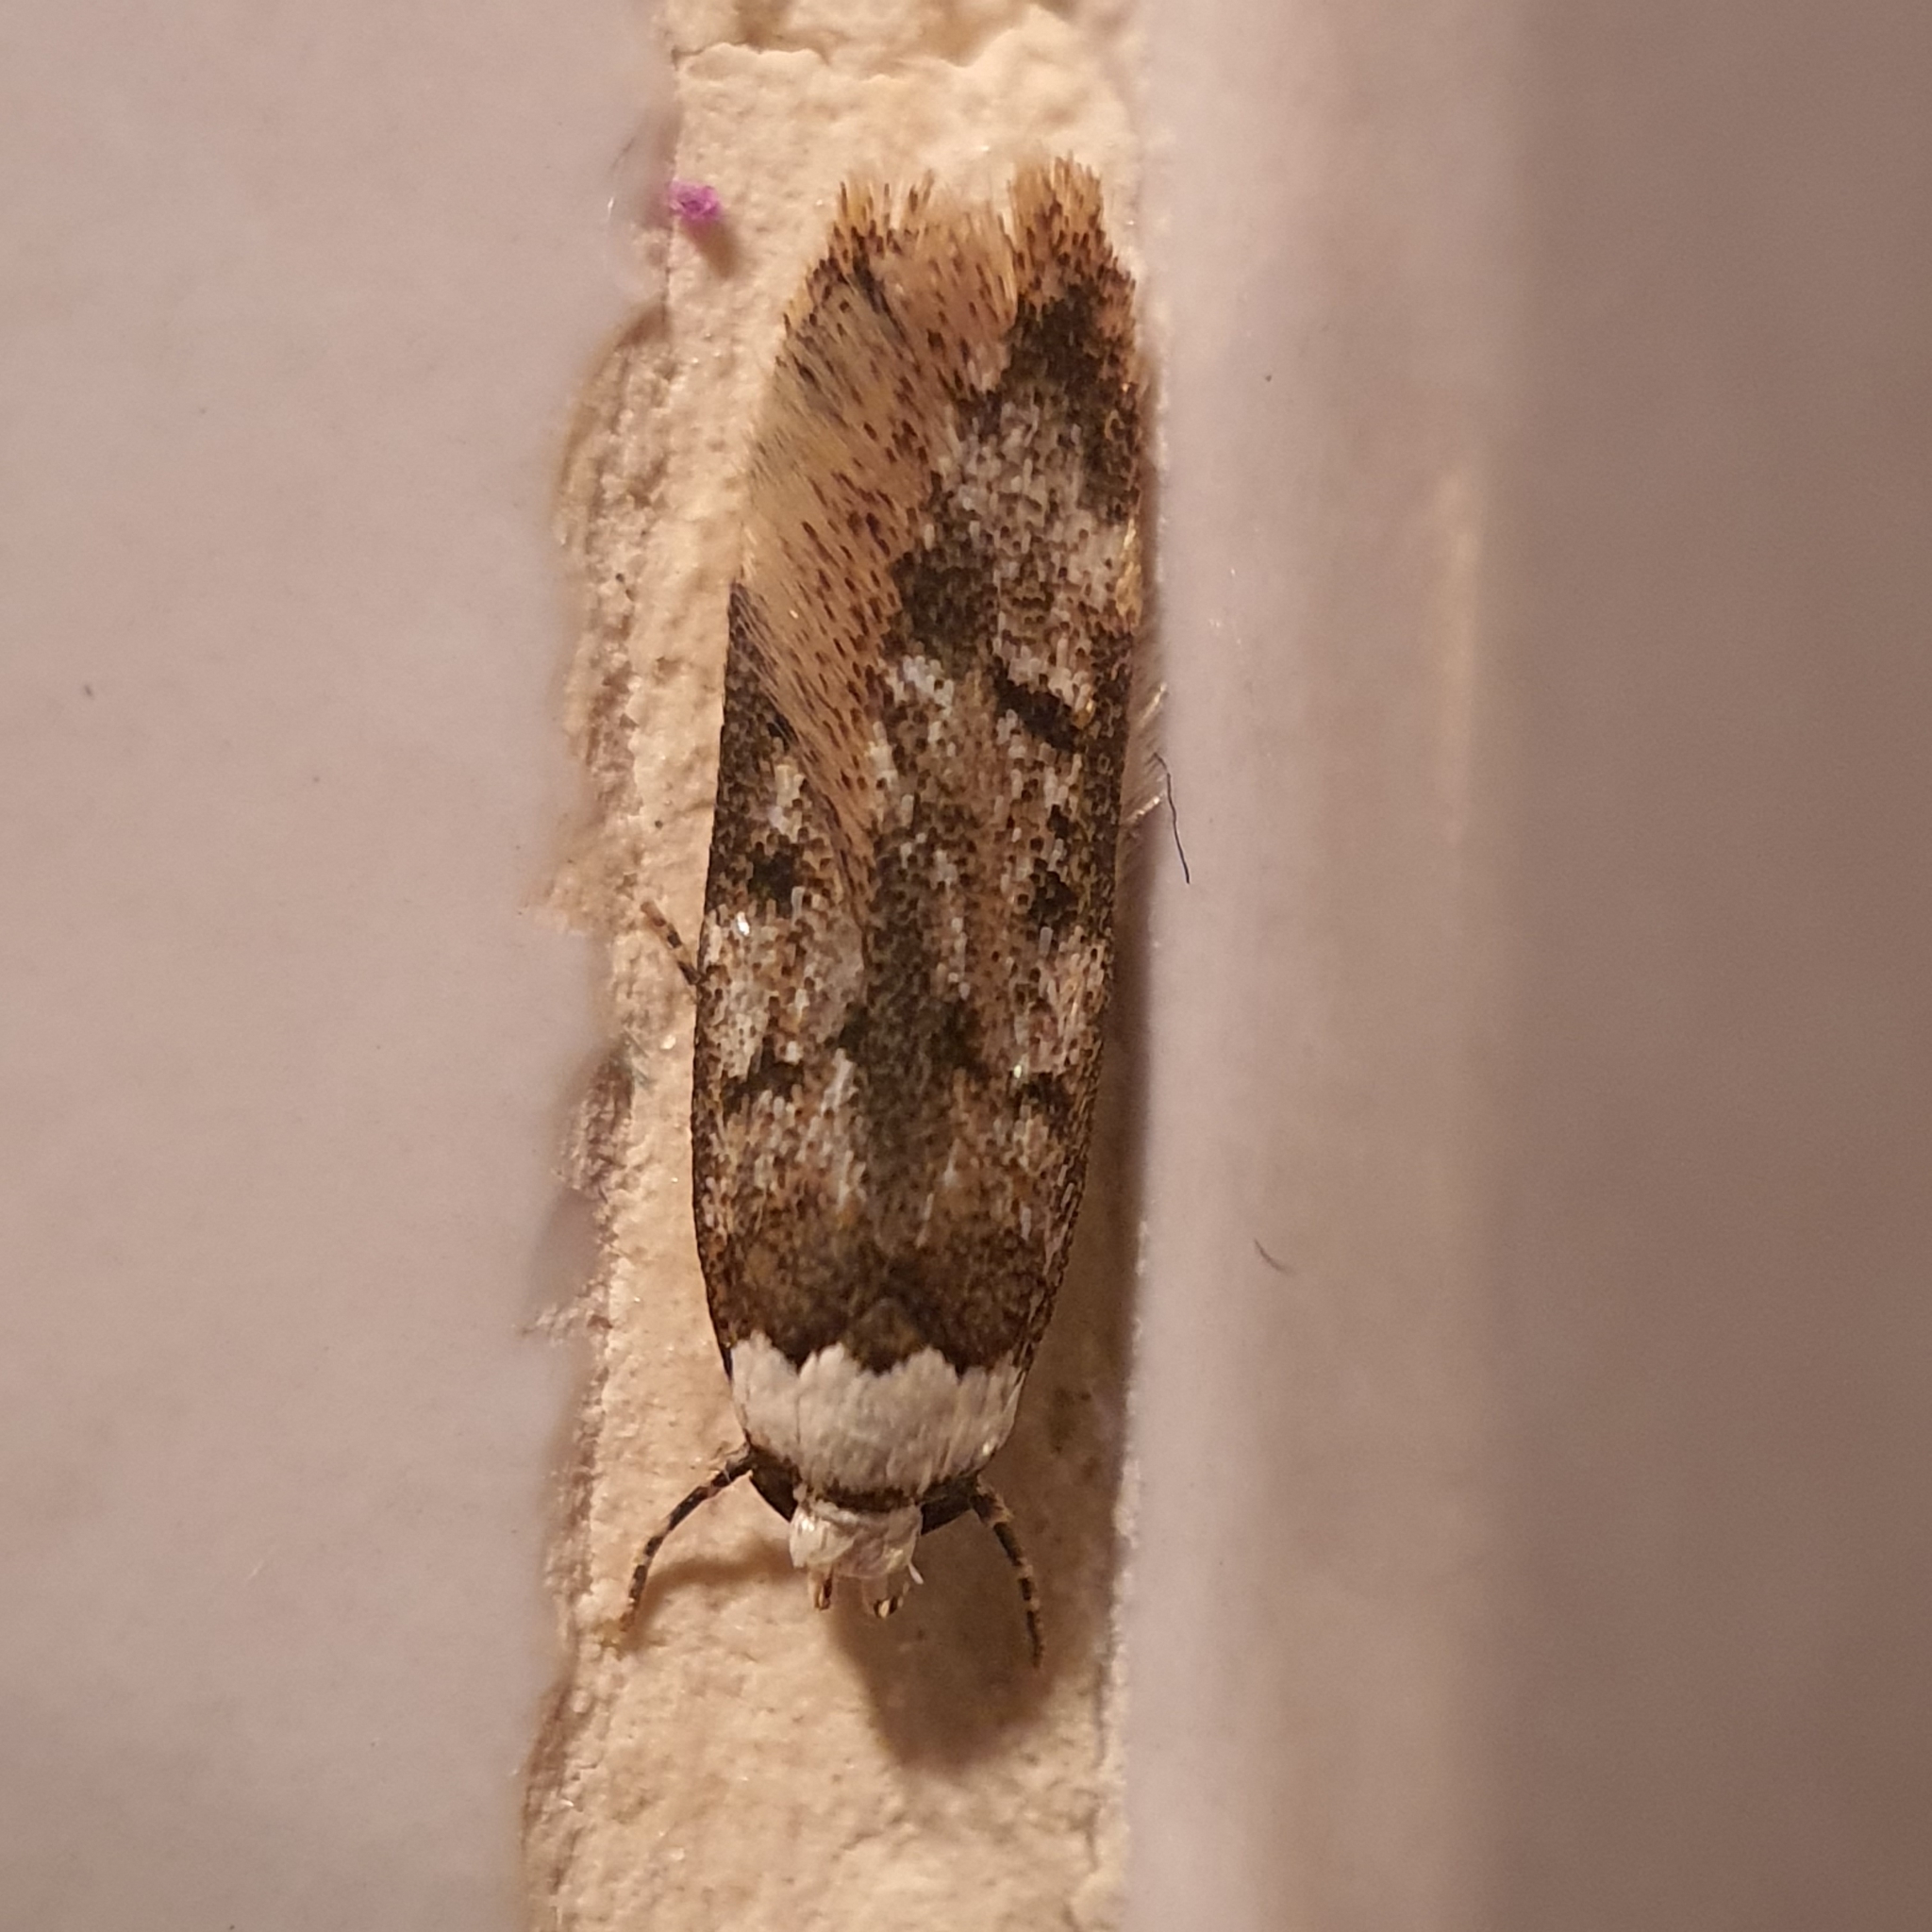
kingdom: Animalia
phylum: Arthropoda
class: Insecta
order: Lepidoptera
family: Oecophoridae
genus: Endrosis
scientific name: Endrosis sarcitrella
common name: White-shouldered house moth
